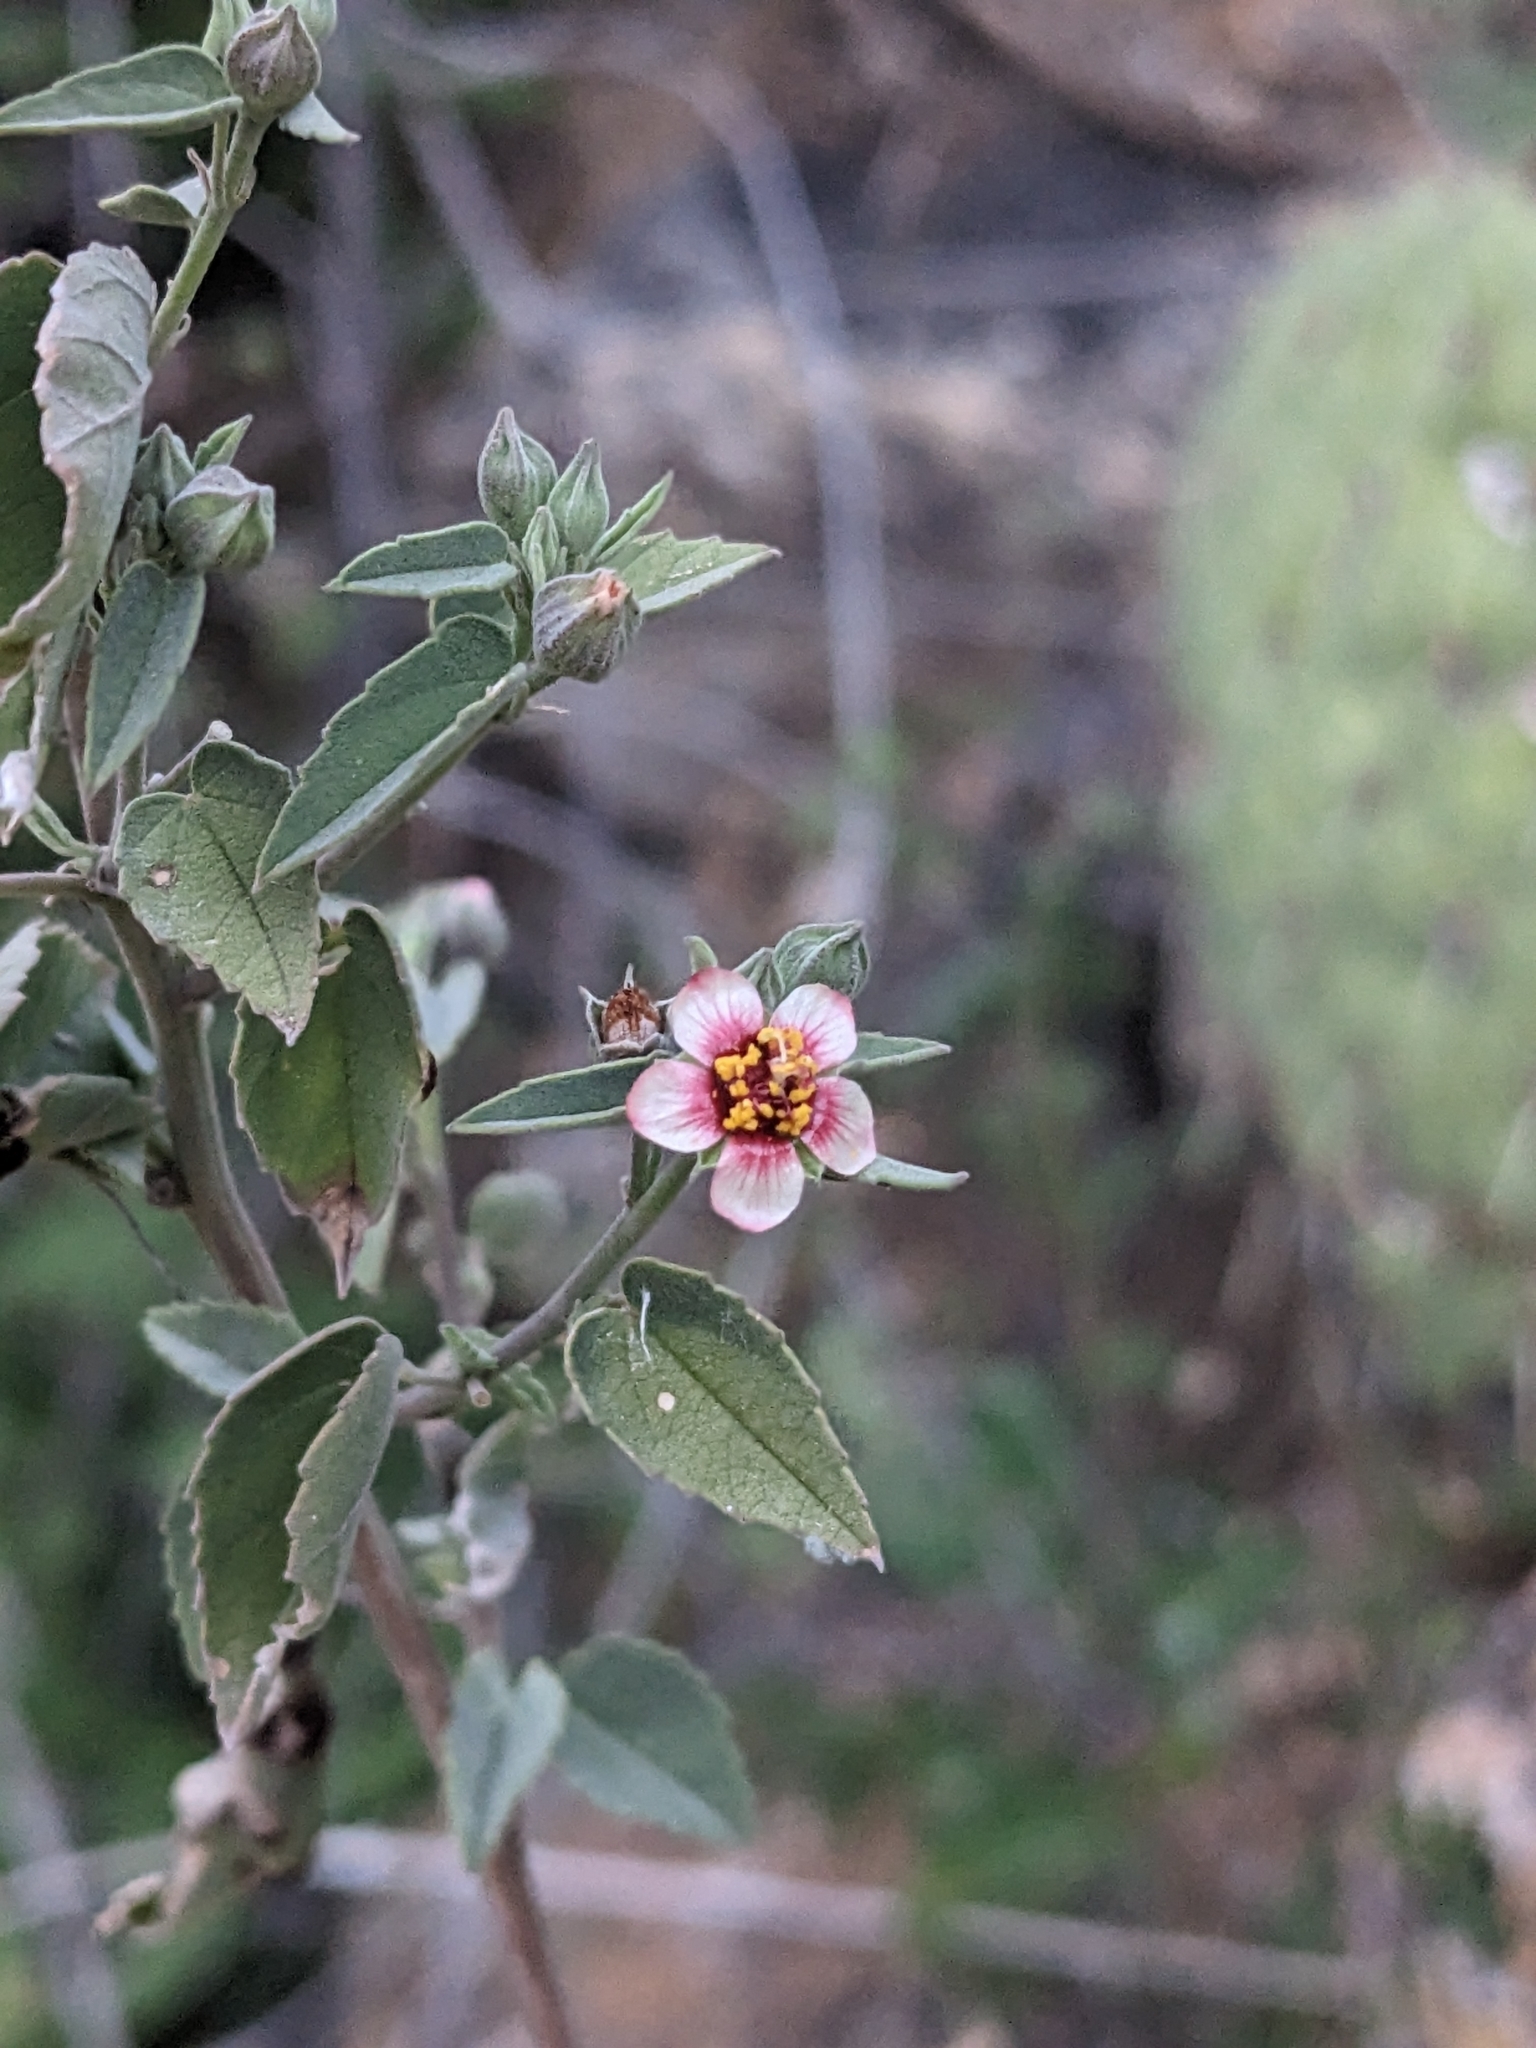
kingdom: Plantae
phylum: Tracheophyta
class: Magnoliopsida
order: Malvales
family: Malvaceae
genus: Abutilon
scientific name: Abutilon incanum
